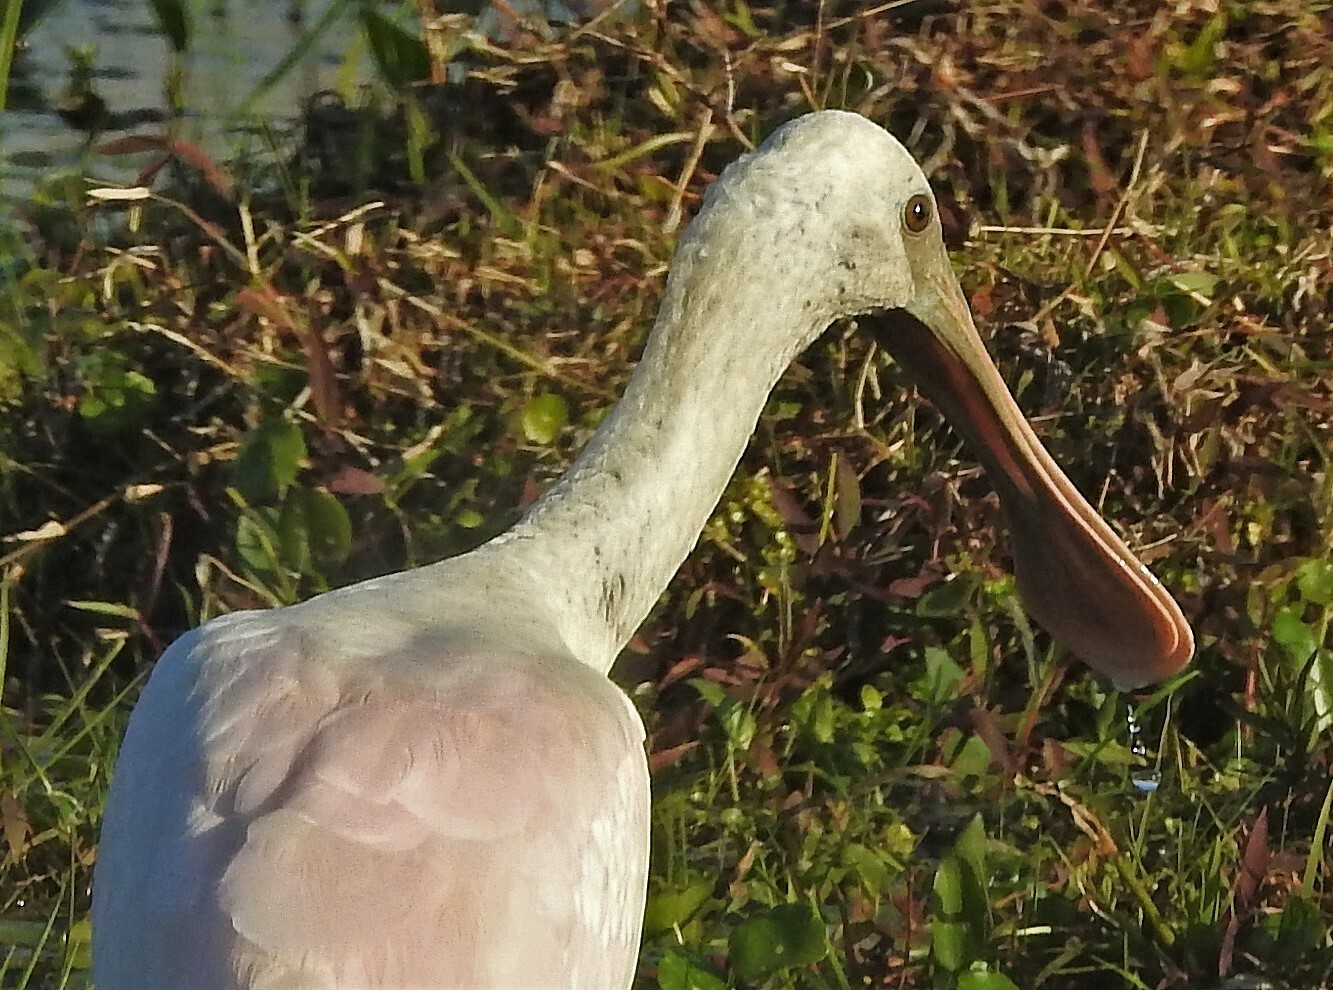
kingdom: Animalia
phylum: Chordata
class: Aves
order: Pelecaniformes
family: Threskiornithidae
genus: Platalea
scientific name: Platalea ajaja
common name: Roseate spoonbill
